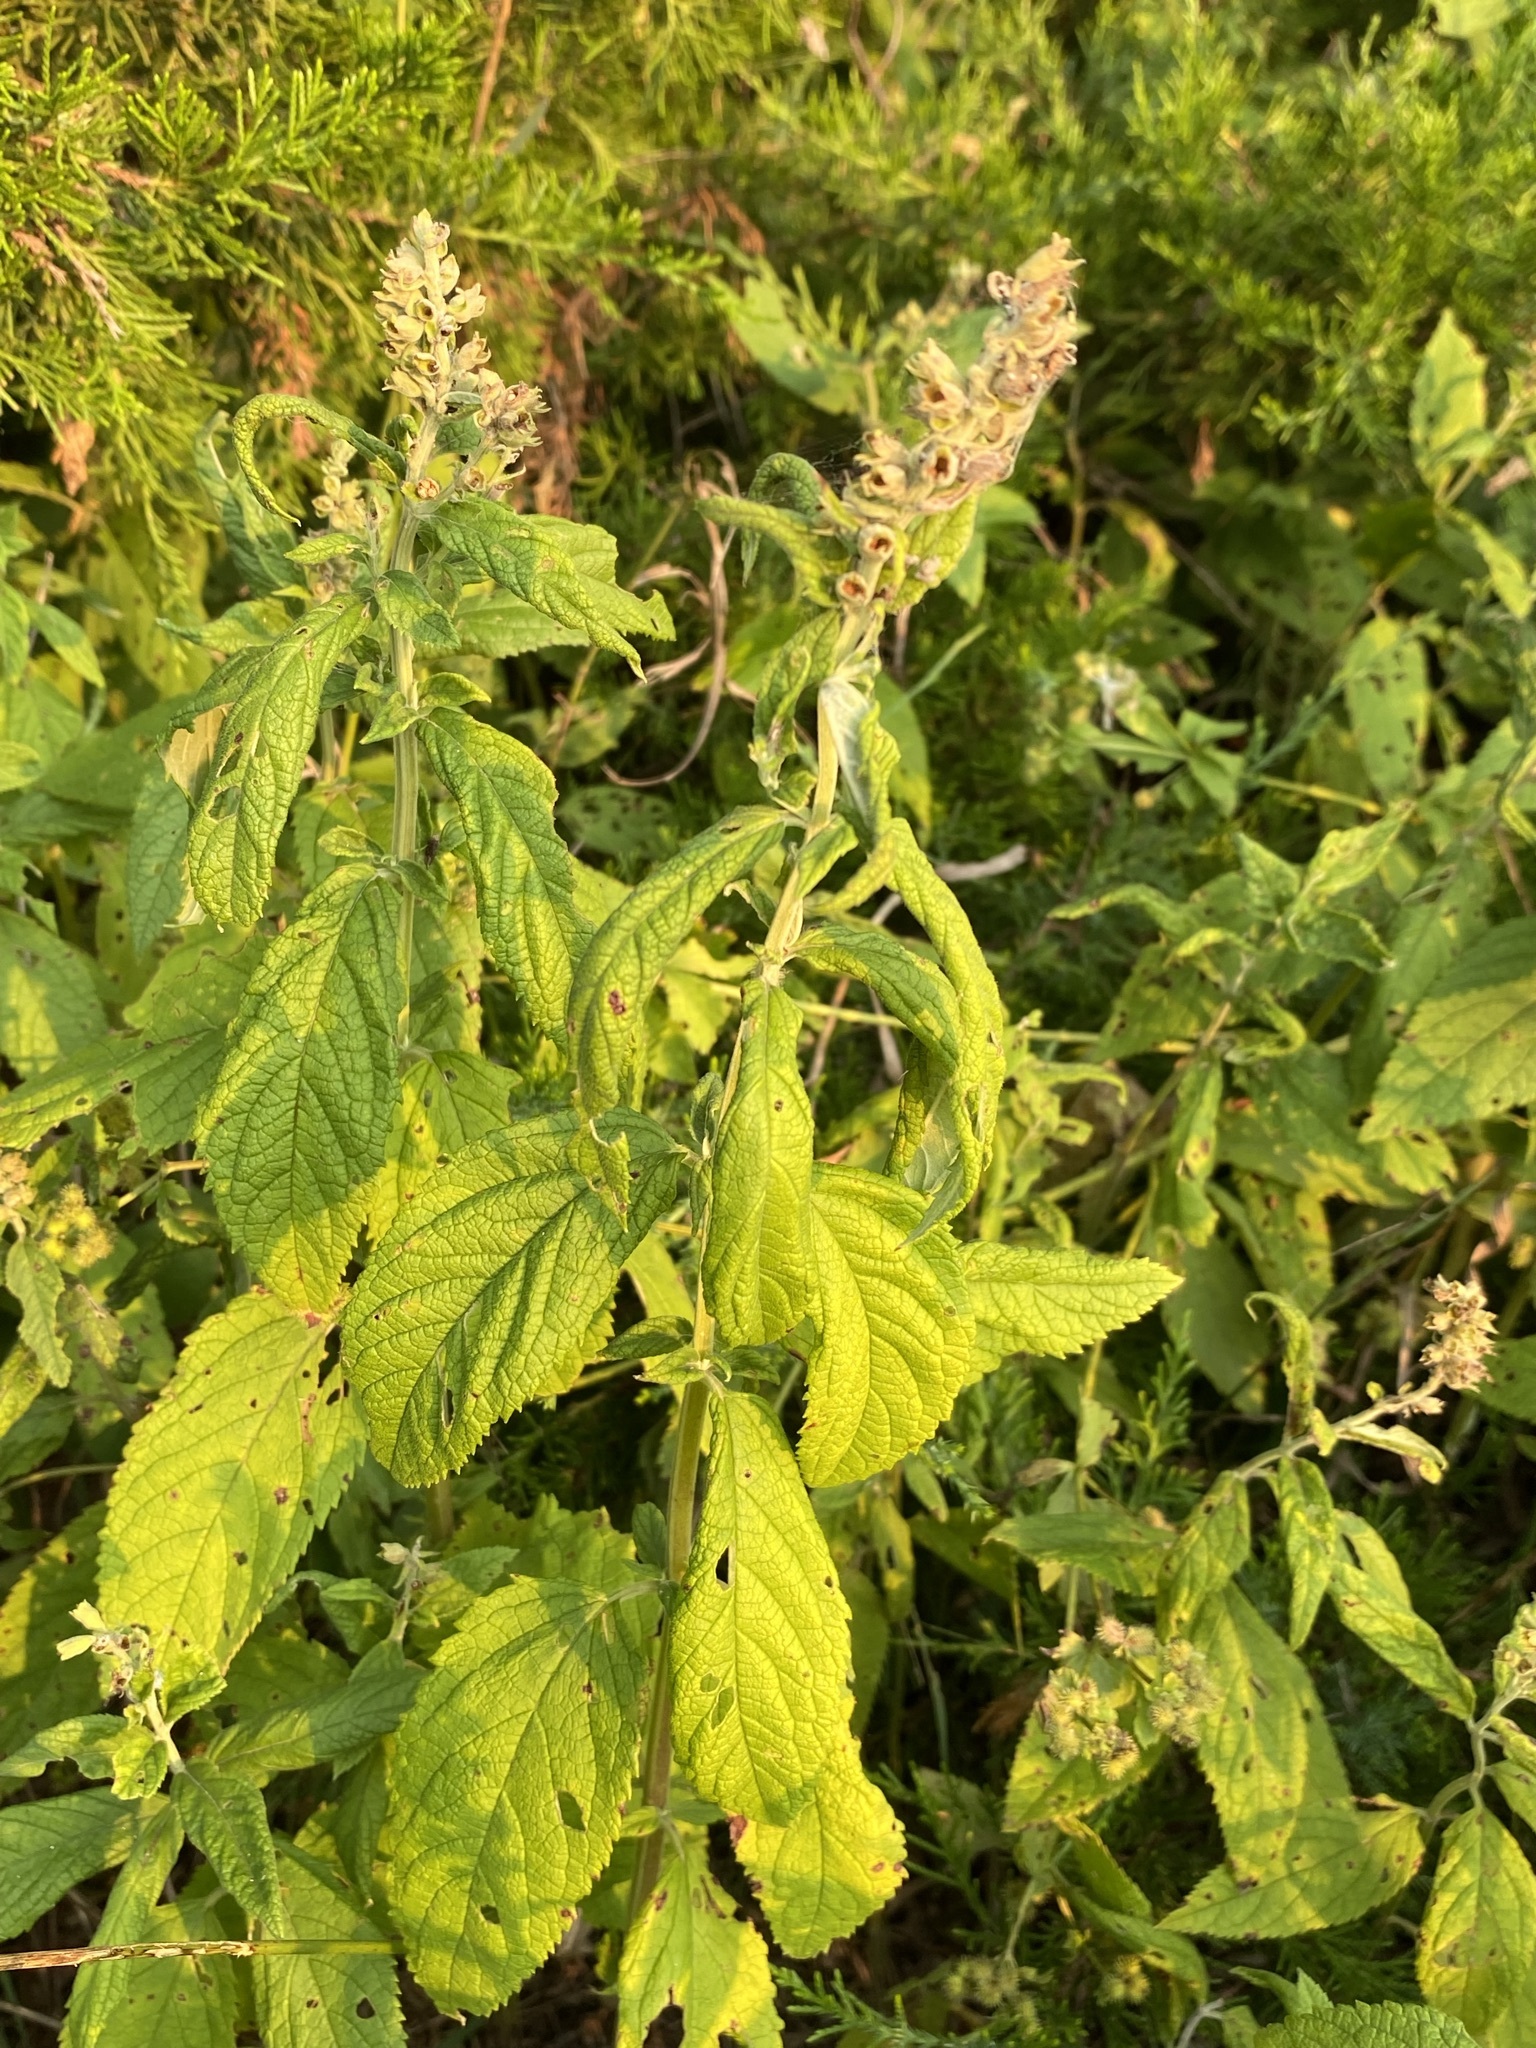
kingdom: Plantae
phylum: Tracheophyta
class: Magnoliopsida
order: Lamiales
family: Lamiaceae
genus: Teucrium
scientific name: Teucrium canadense
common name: American germander
